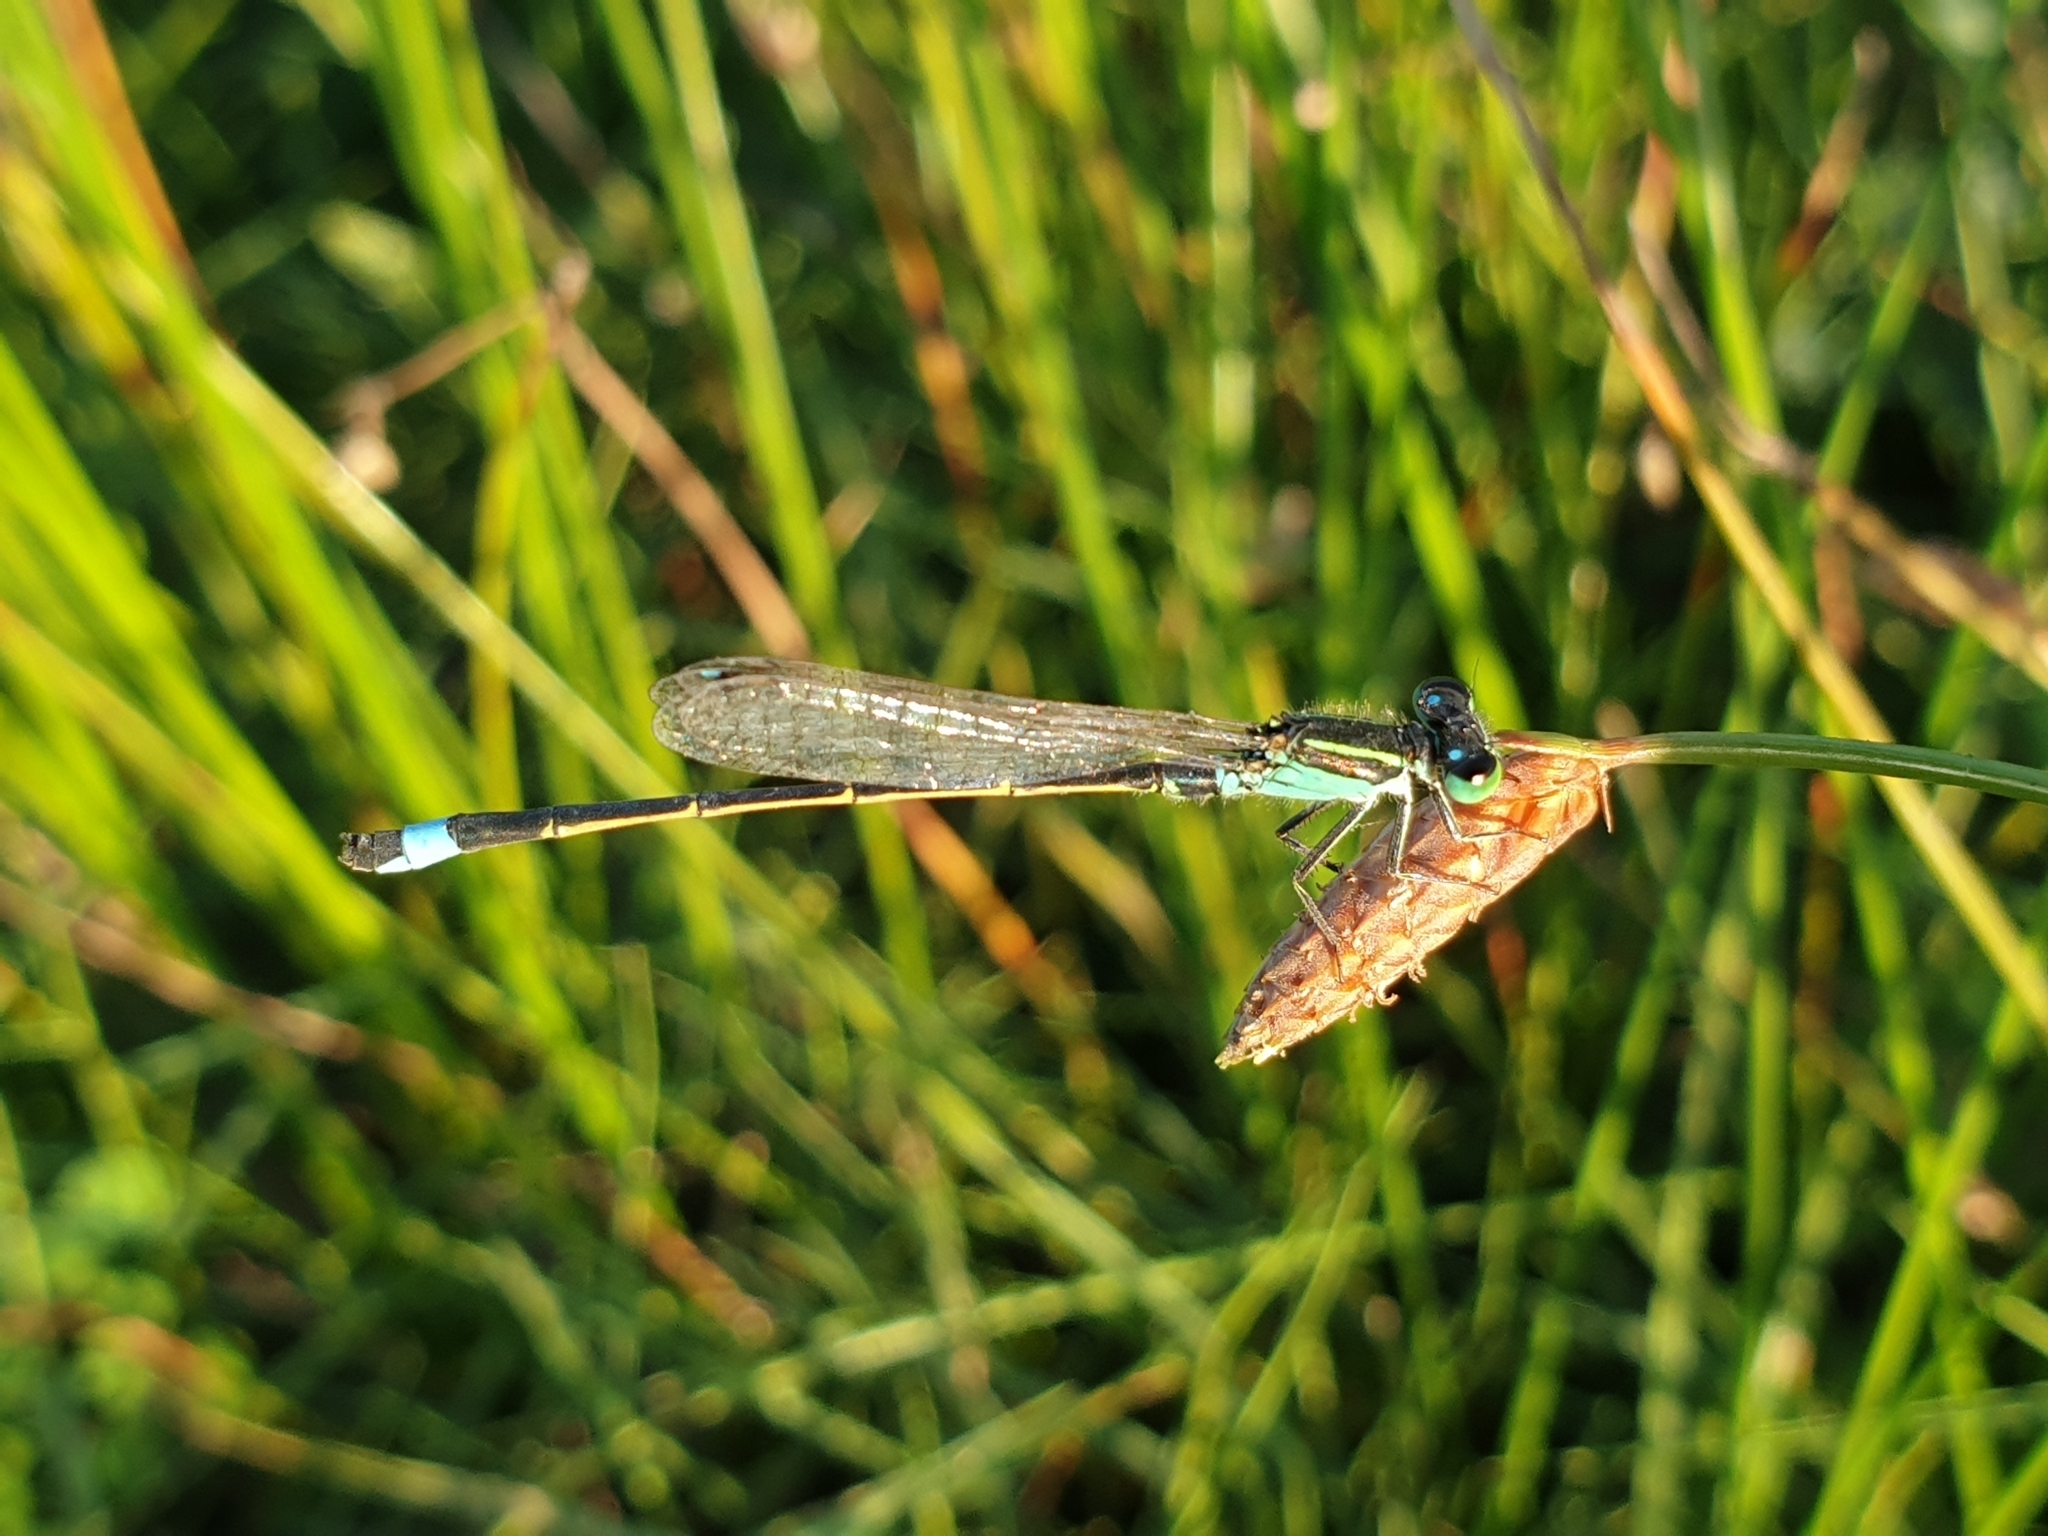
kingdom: Animalia
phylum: Arthropoda
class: Insecta
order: Odonata
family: Coenagrionidae
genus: Ischnura
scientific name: Ischnura senegalensis
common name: Tropical bluetail
